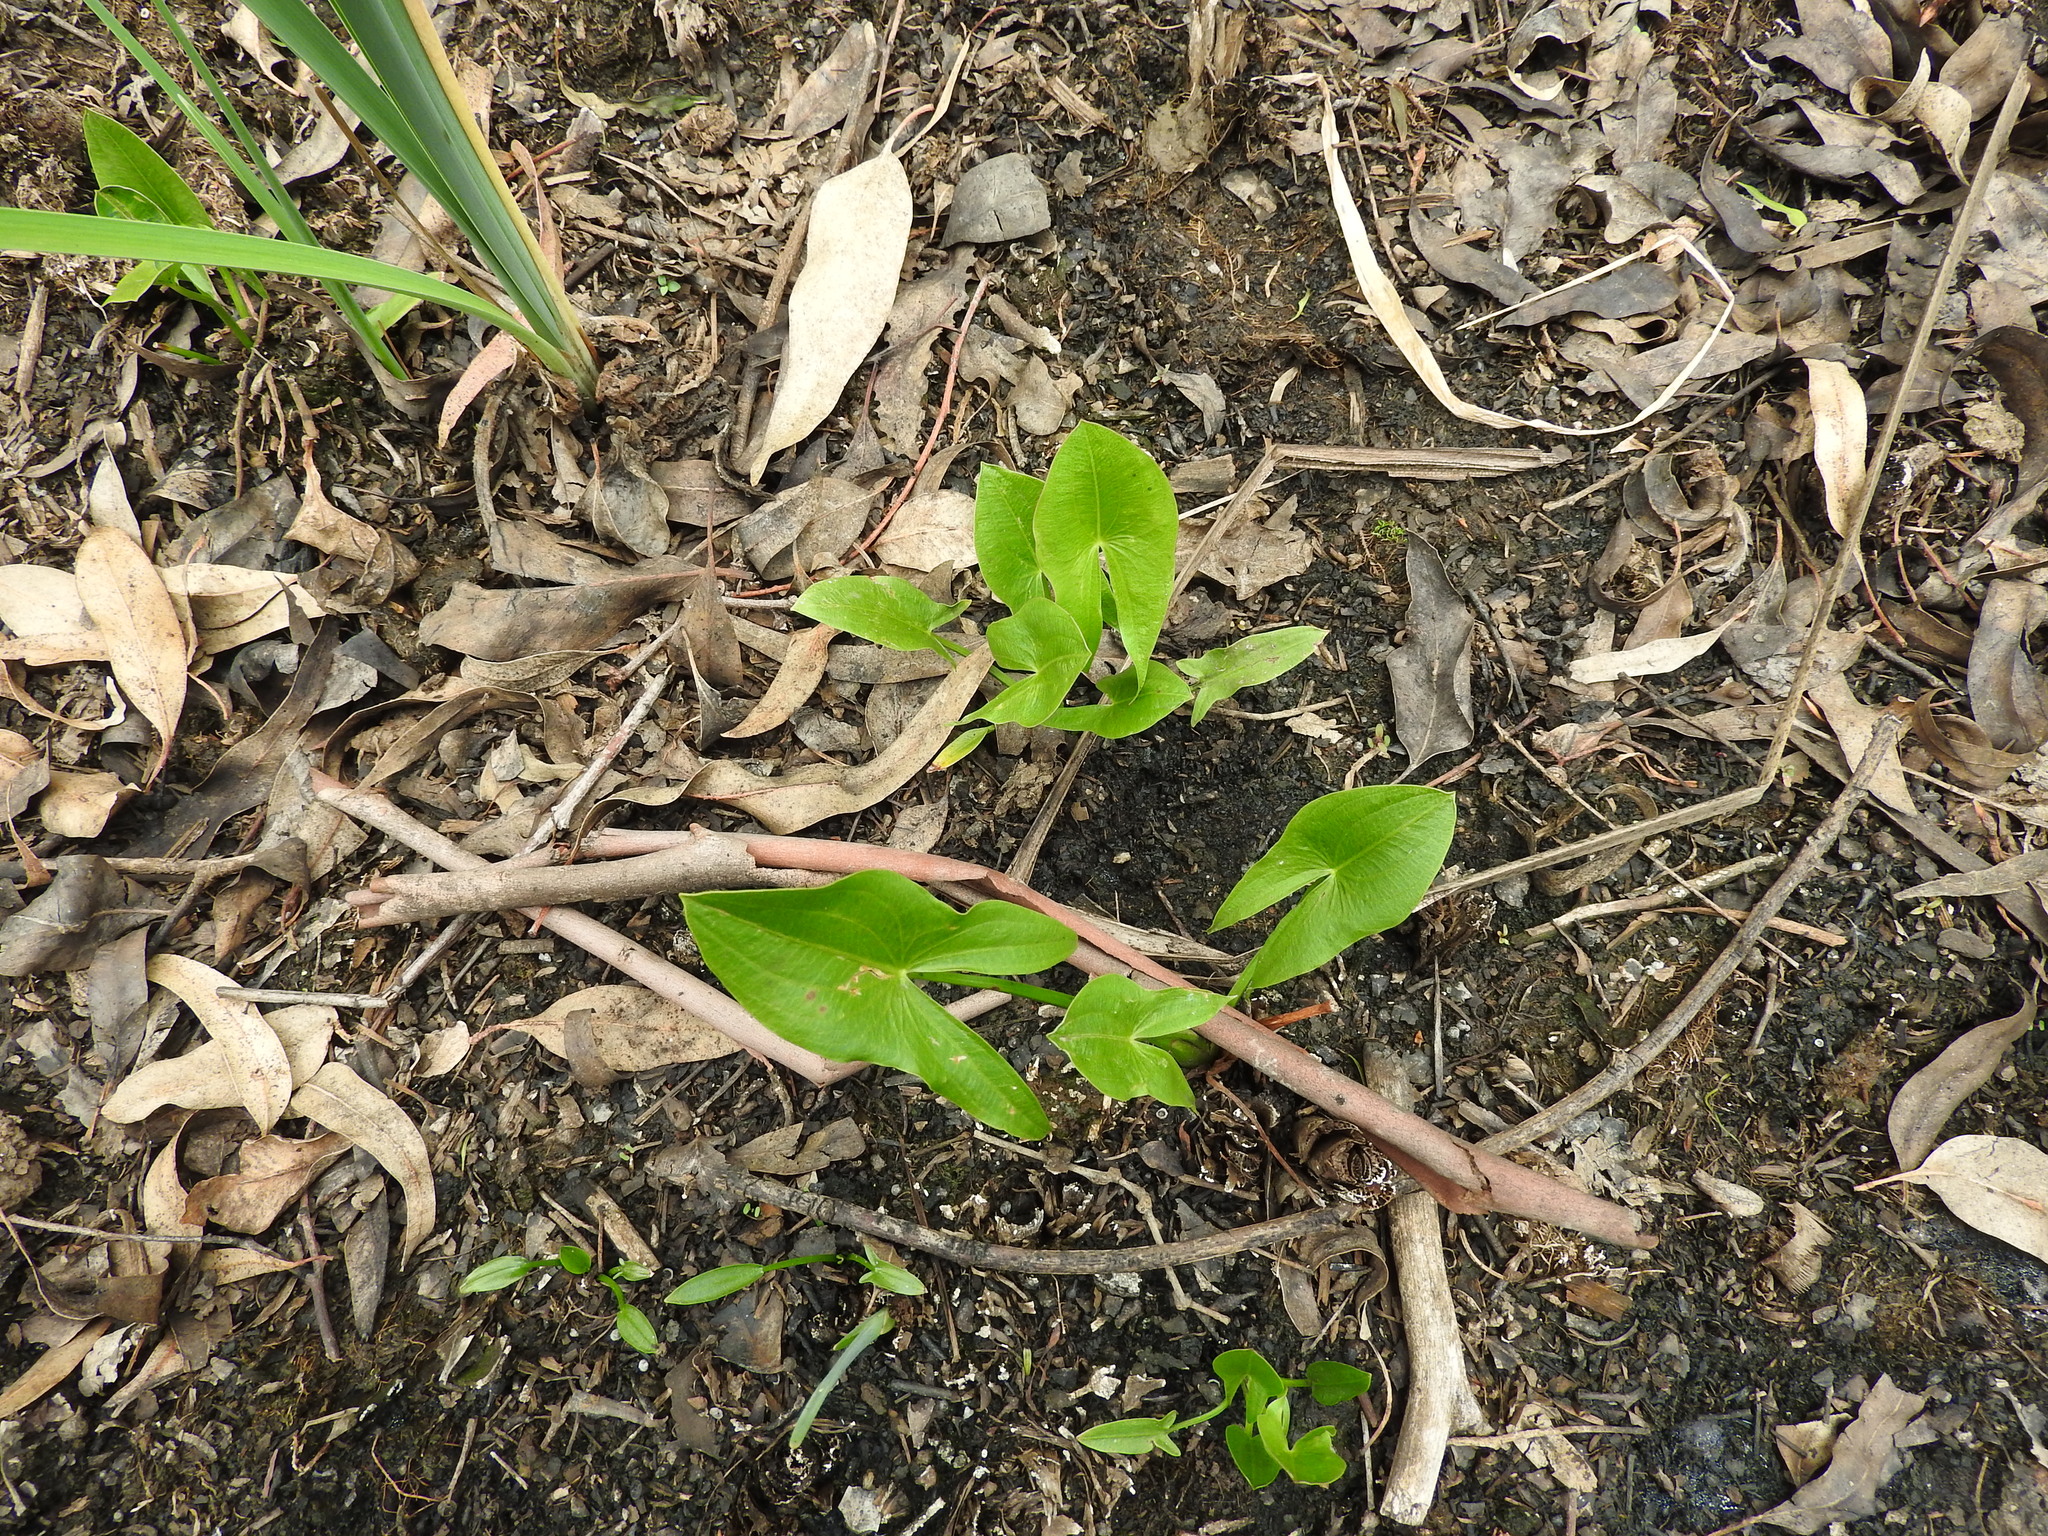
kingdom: Plantae
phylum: Tracheophyta
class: Liliopsida
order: Alismatales
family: Alismataceae
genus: Sagittaria
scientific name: Sagittaria latifolia
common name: Duck-potato
